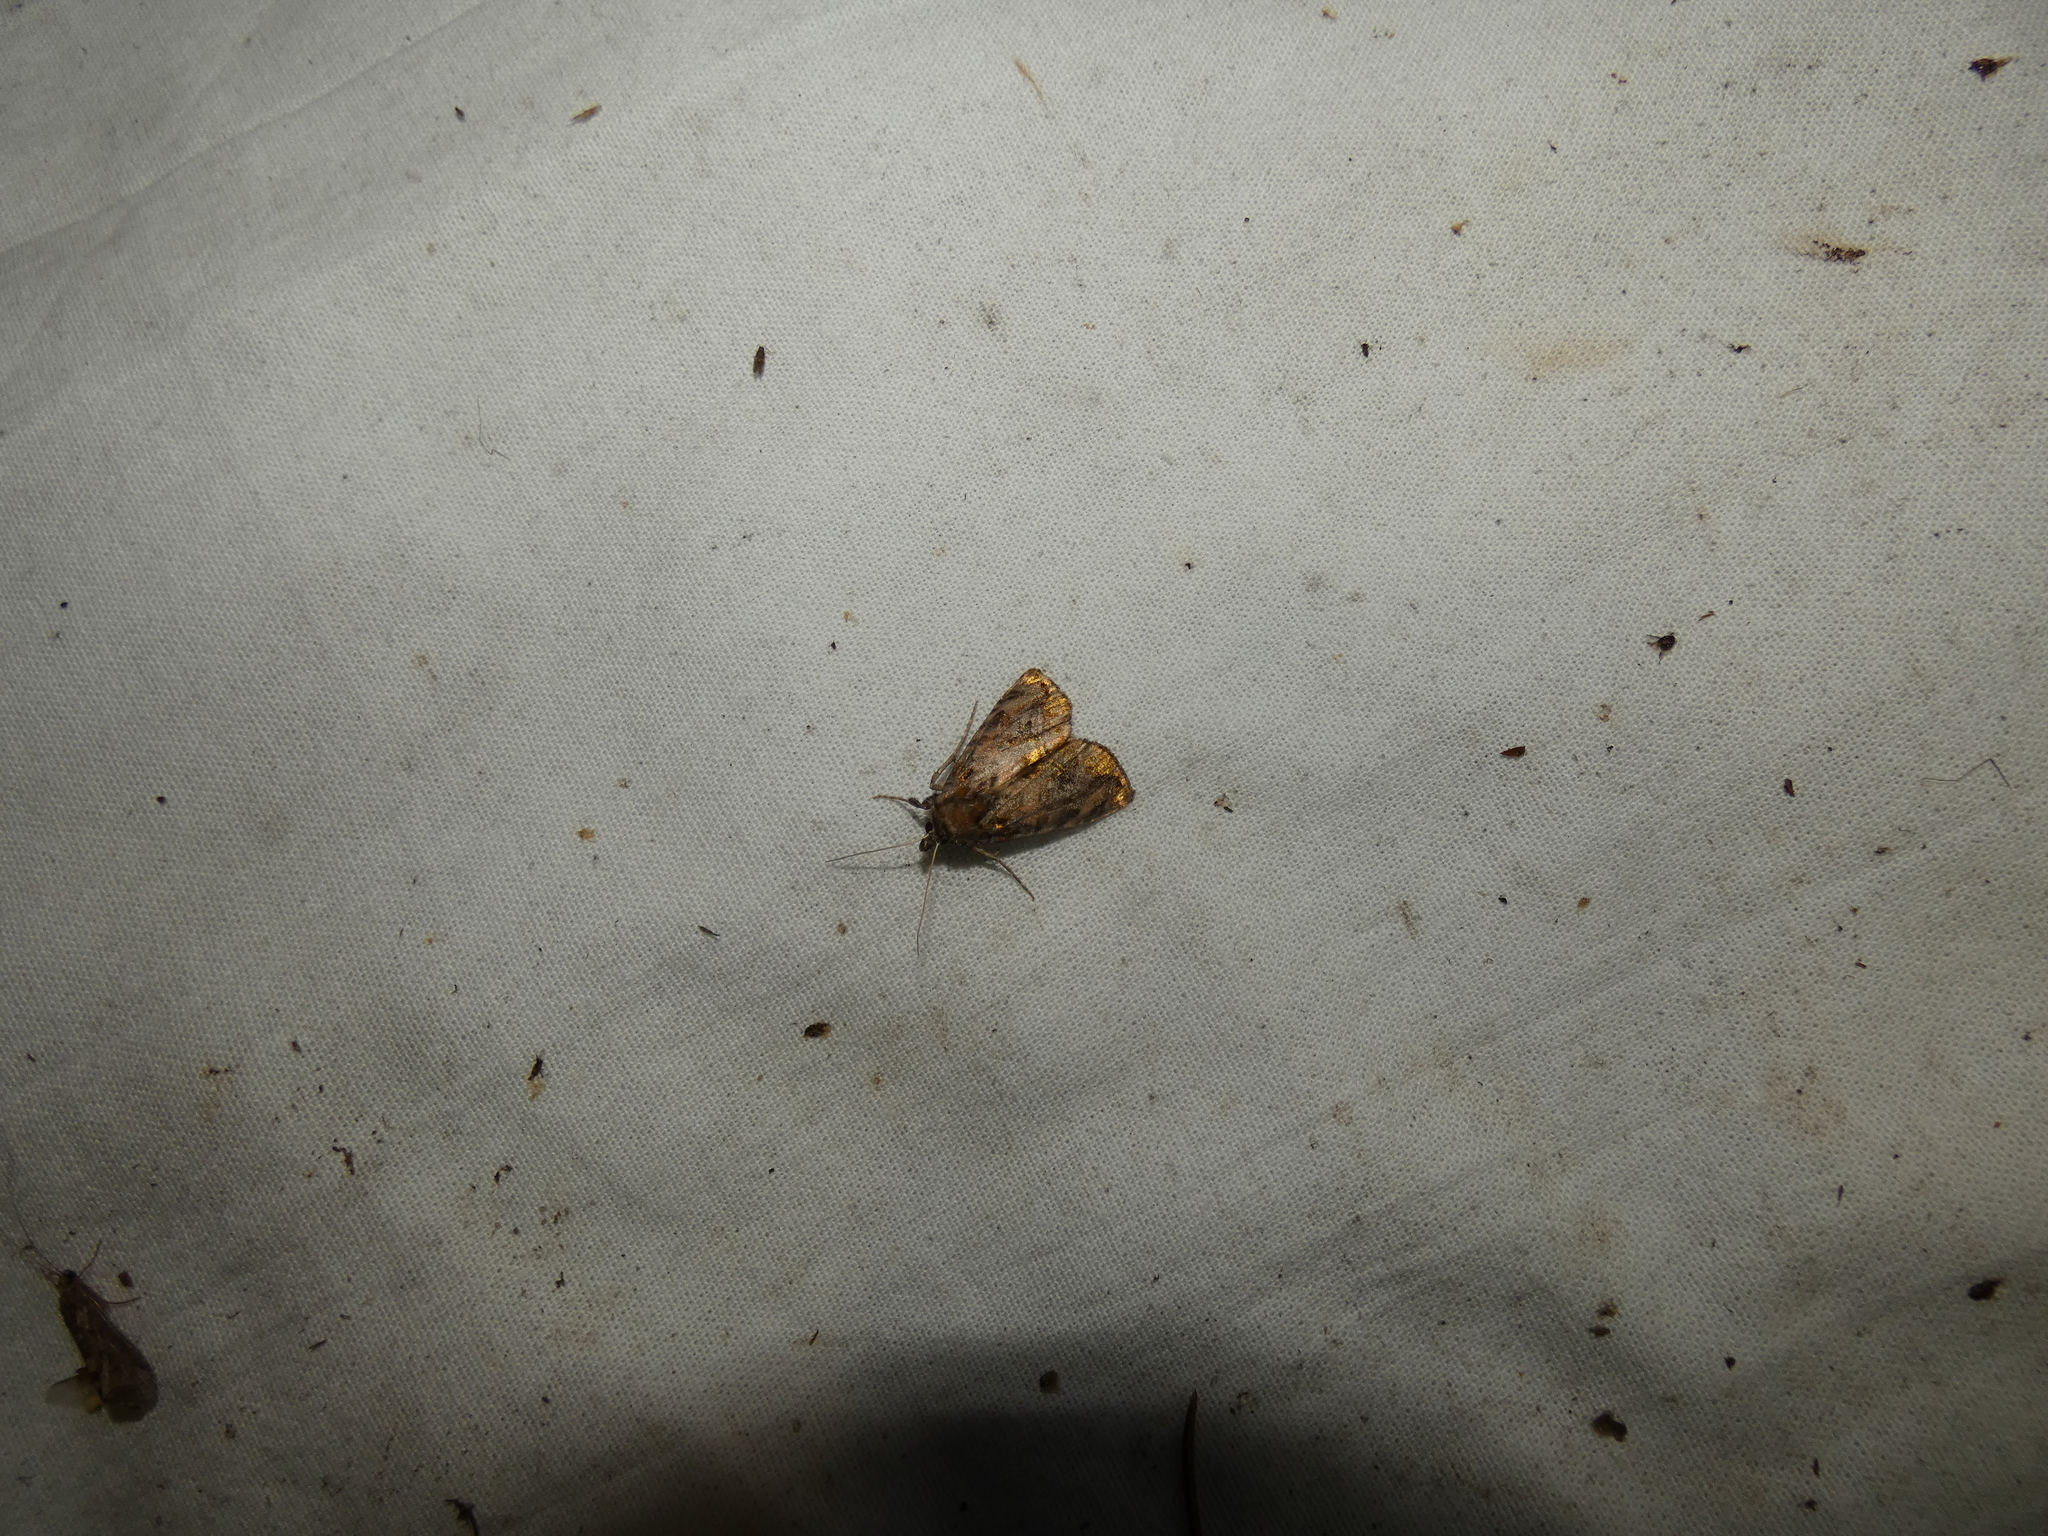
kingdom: Animalia
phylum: Arthropoda
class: Insecta
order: Lepidoptera
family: Noctuidae
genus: Lamprotes
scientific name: Lamprotes caureum
